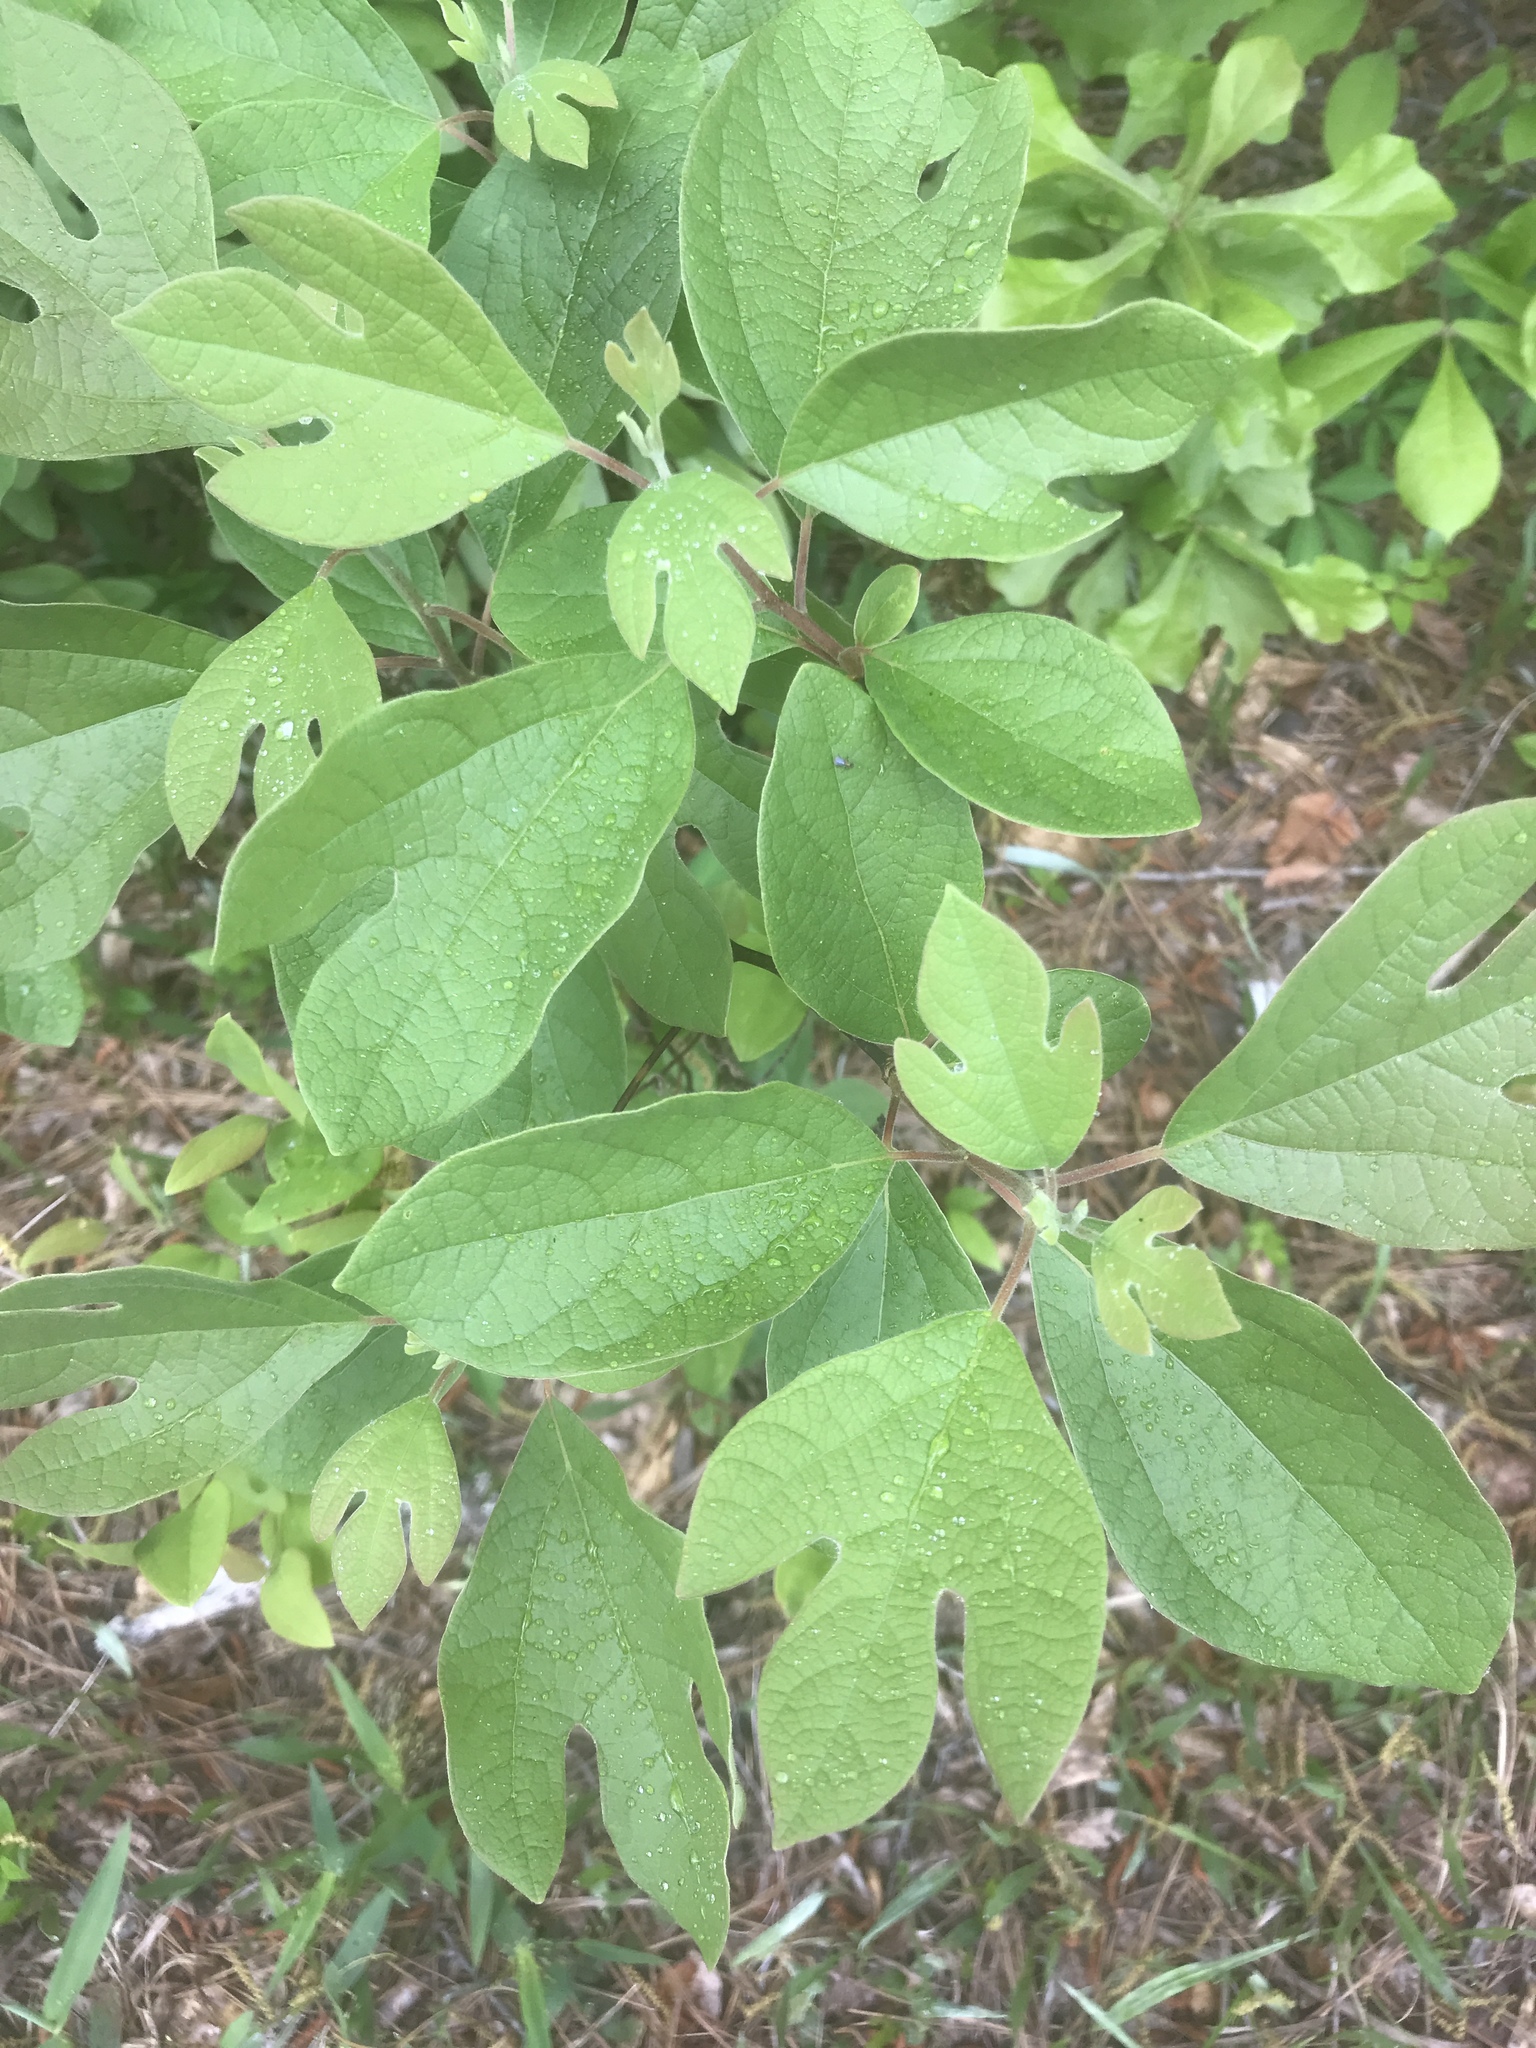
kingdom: Plantae
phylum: Tracheophyta
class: Magnoliopsida
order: Laurales
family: Lauraceae
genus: Sassafras
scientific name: Sassafras albidum
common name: Sassafras
